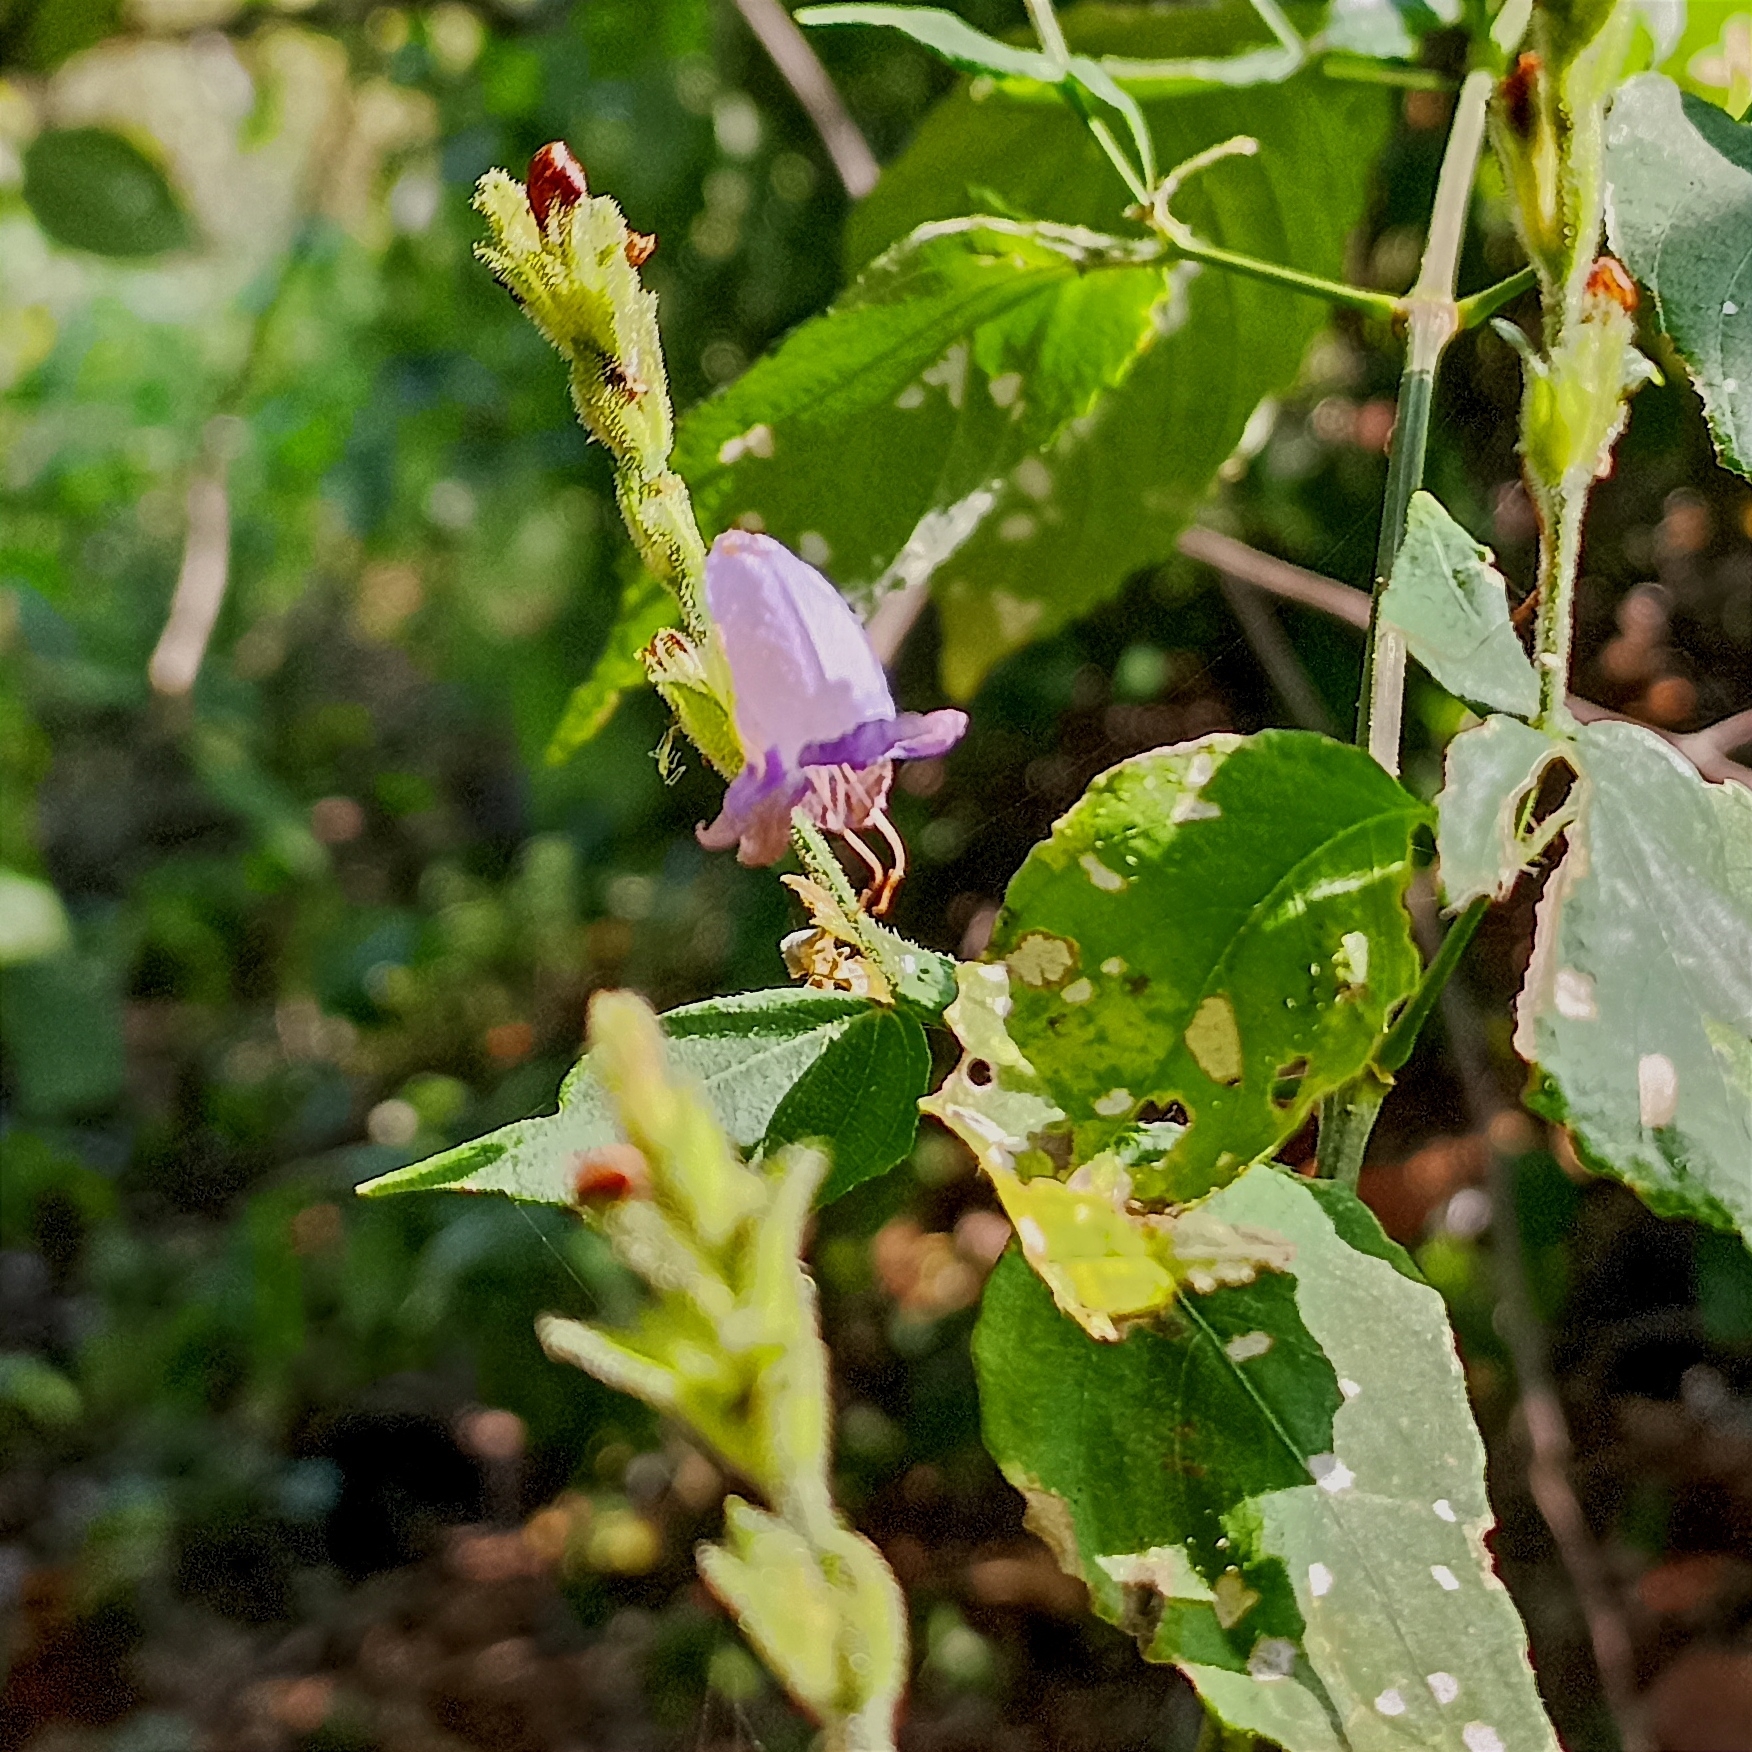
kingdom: Plantae
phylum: Tracheophyta
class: Magnoliopsida
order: Lamiales
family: Acanthaceae
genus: Strobilanthes
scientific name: Strobilanthes cordifolia
